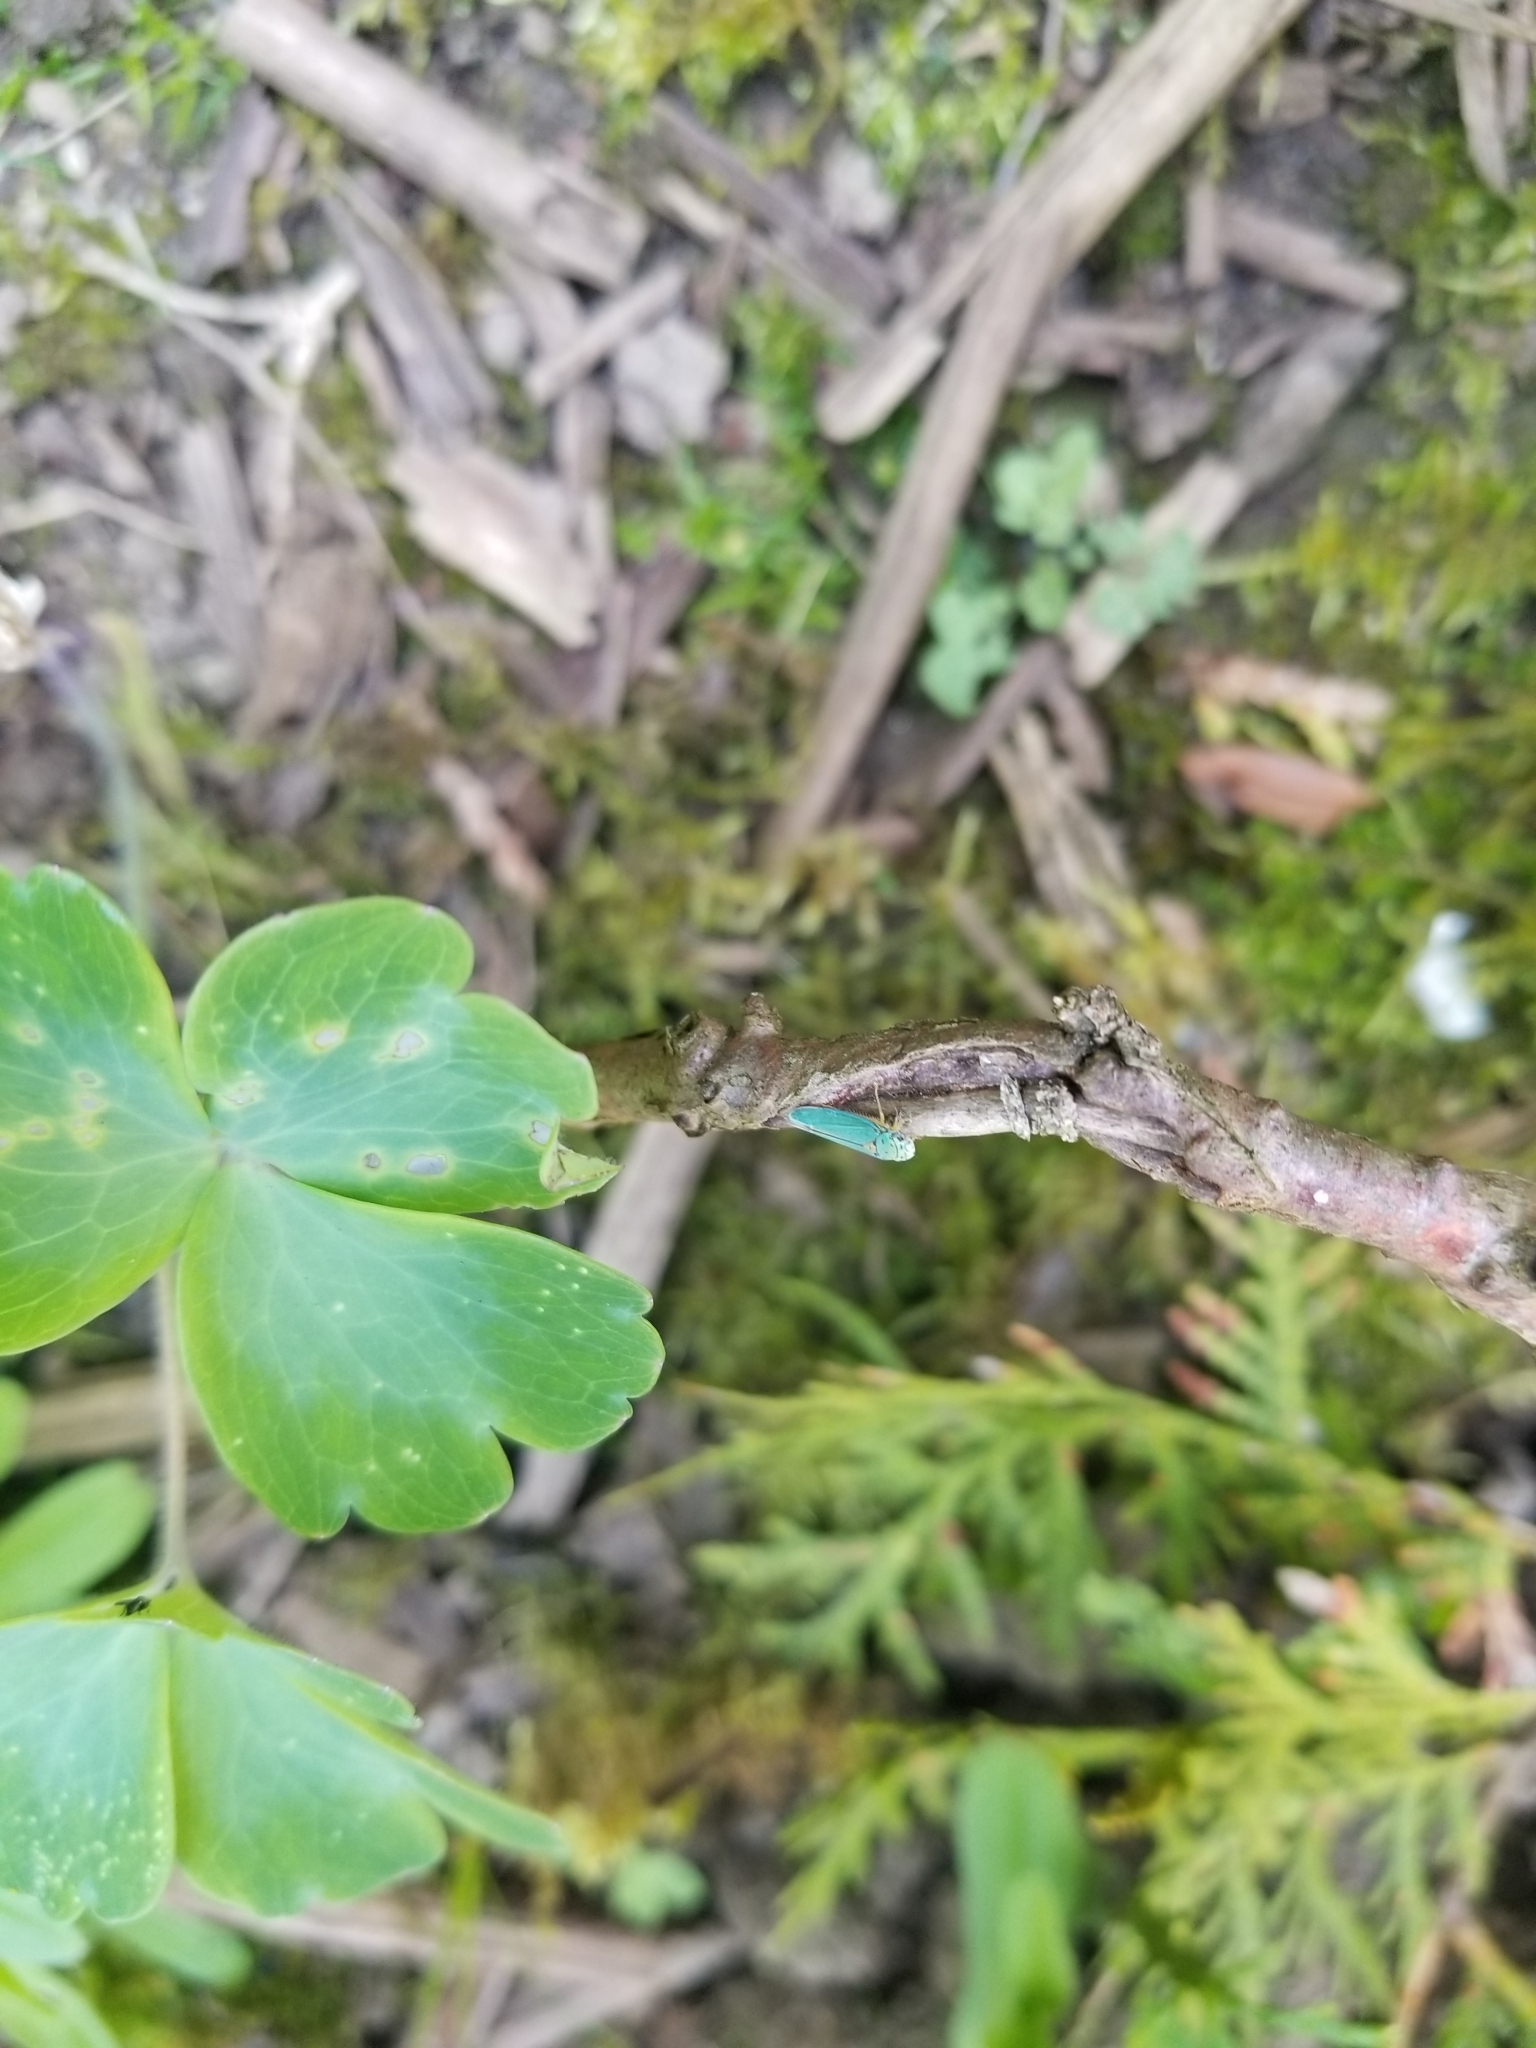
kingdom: Animalia
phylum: Arthropoda
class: Insecta
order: Hemiptera
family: Cicadellidae
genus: Graphocephala
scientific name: Graphocephala atropunctata
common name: Blue-green sharpshooter
